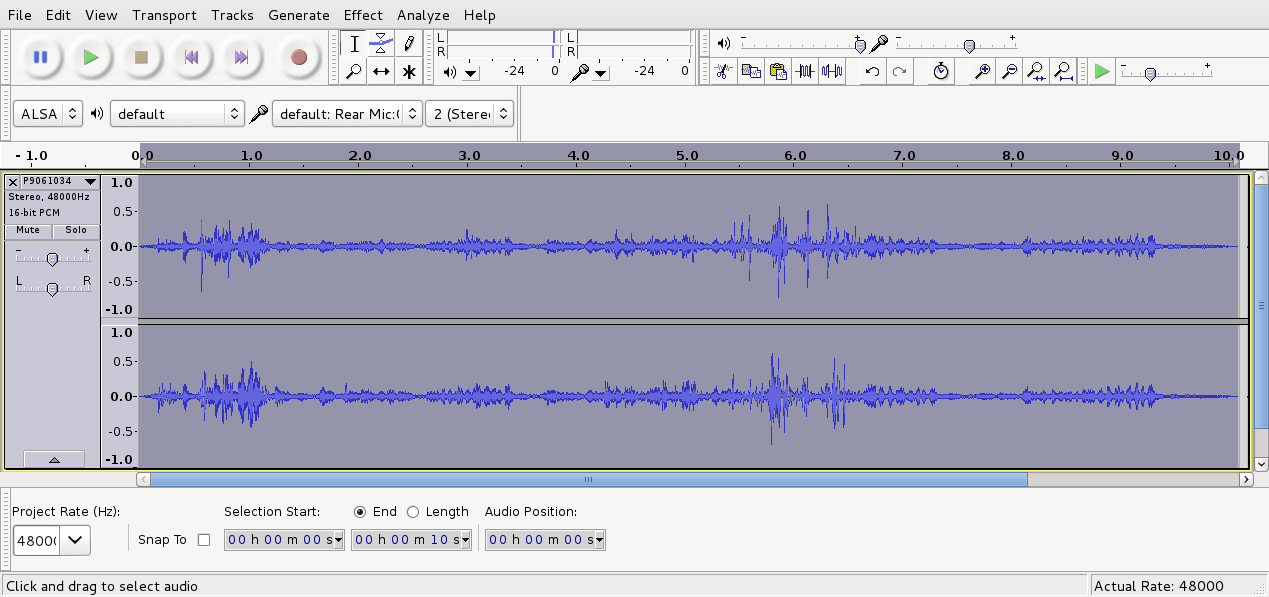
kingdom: Animalia
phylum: Chordata
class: Aves
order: Passeriformes
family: Acanthizidae
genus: Gerygone
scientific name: Gerygone igata
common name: Grey gerygone
